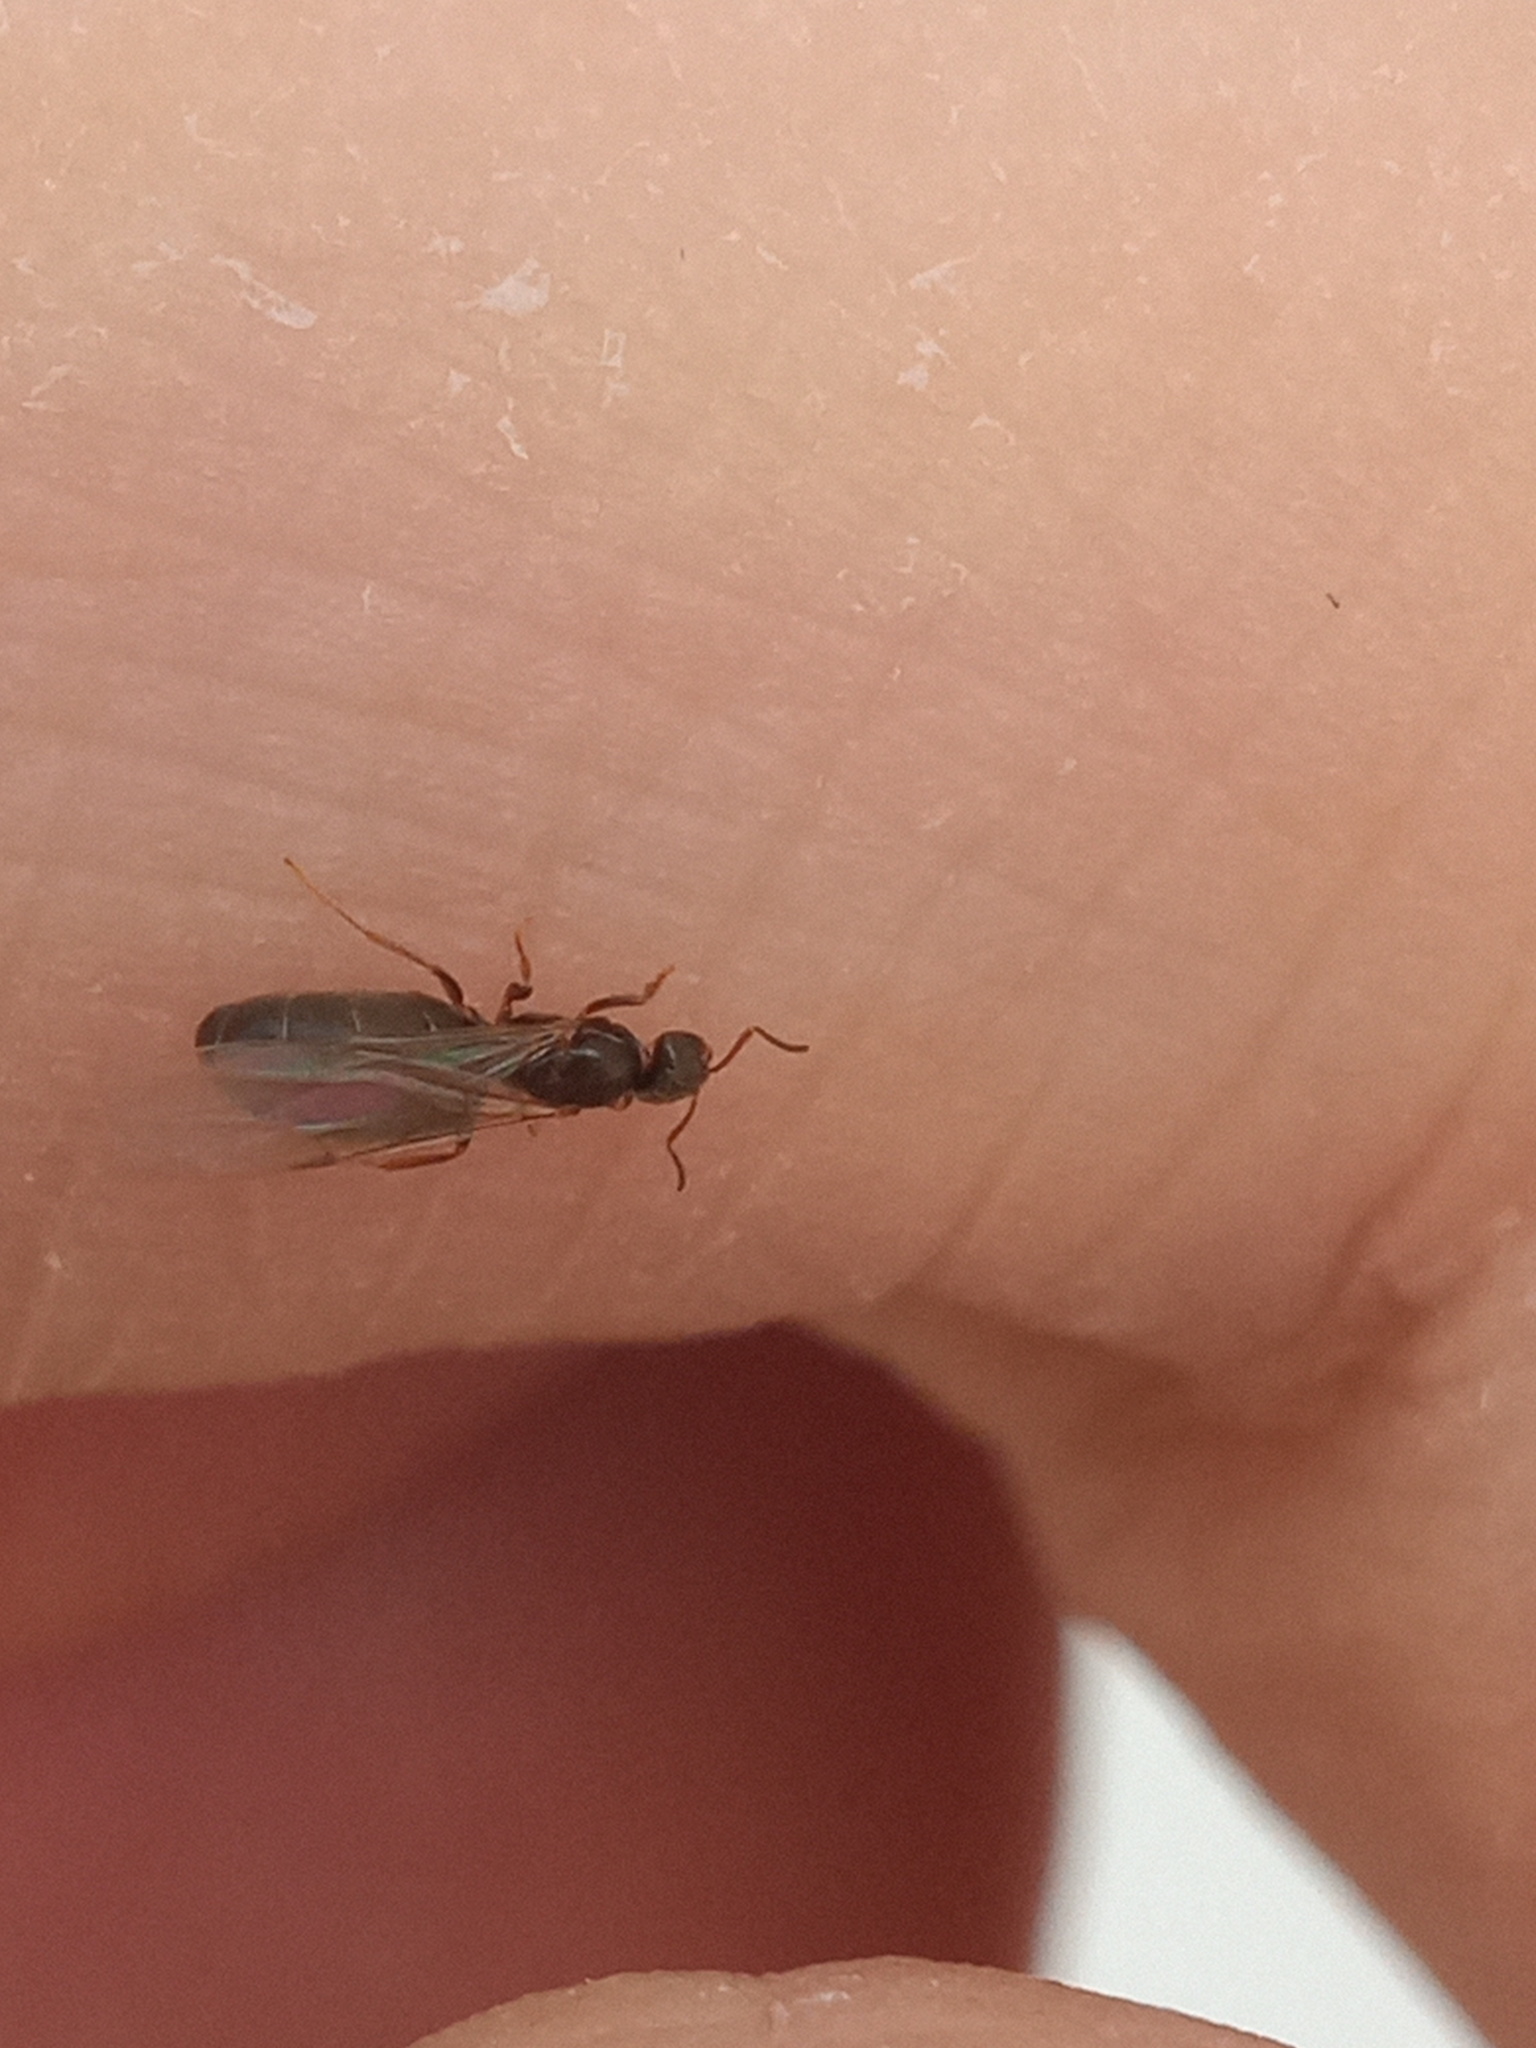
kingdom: Animalia
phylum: Arthropoda
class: Insecta
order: Hymenoptera
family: Formicidae
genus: Brachymyrmex
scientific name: Brachymyrmex obscurior
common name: Obscure rover ant
